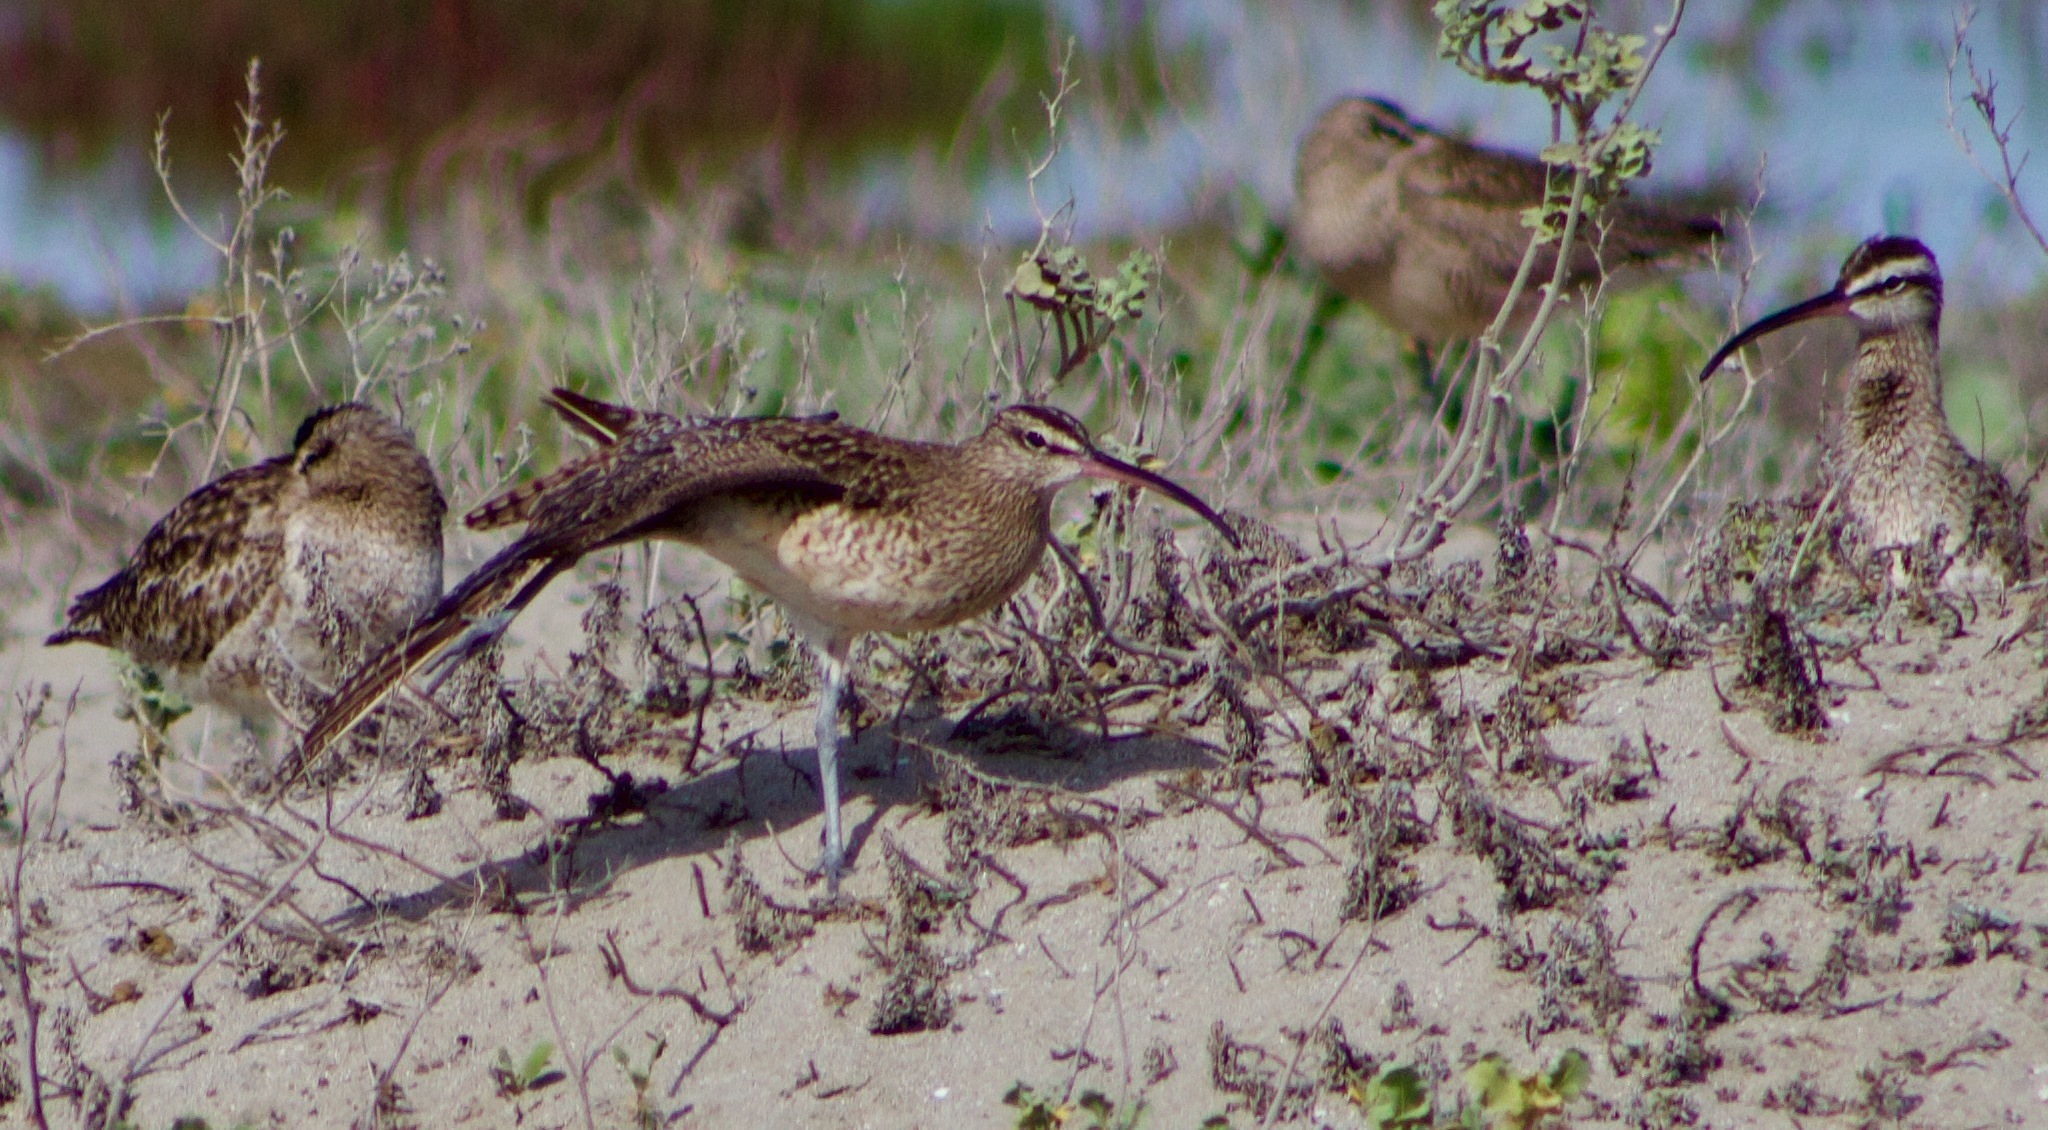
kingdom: Animalia
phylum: Chordata
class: Aves
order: Charadriiformes
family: Scolopacidae
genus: Numenius
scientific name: Numenius phaeopus
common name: Whimbrel
